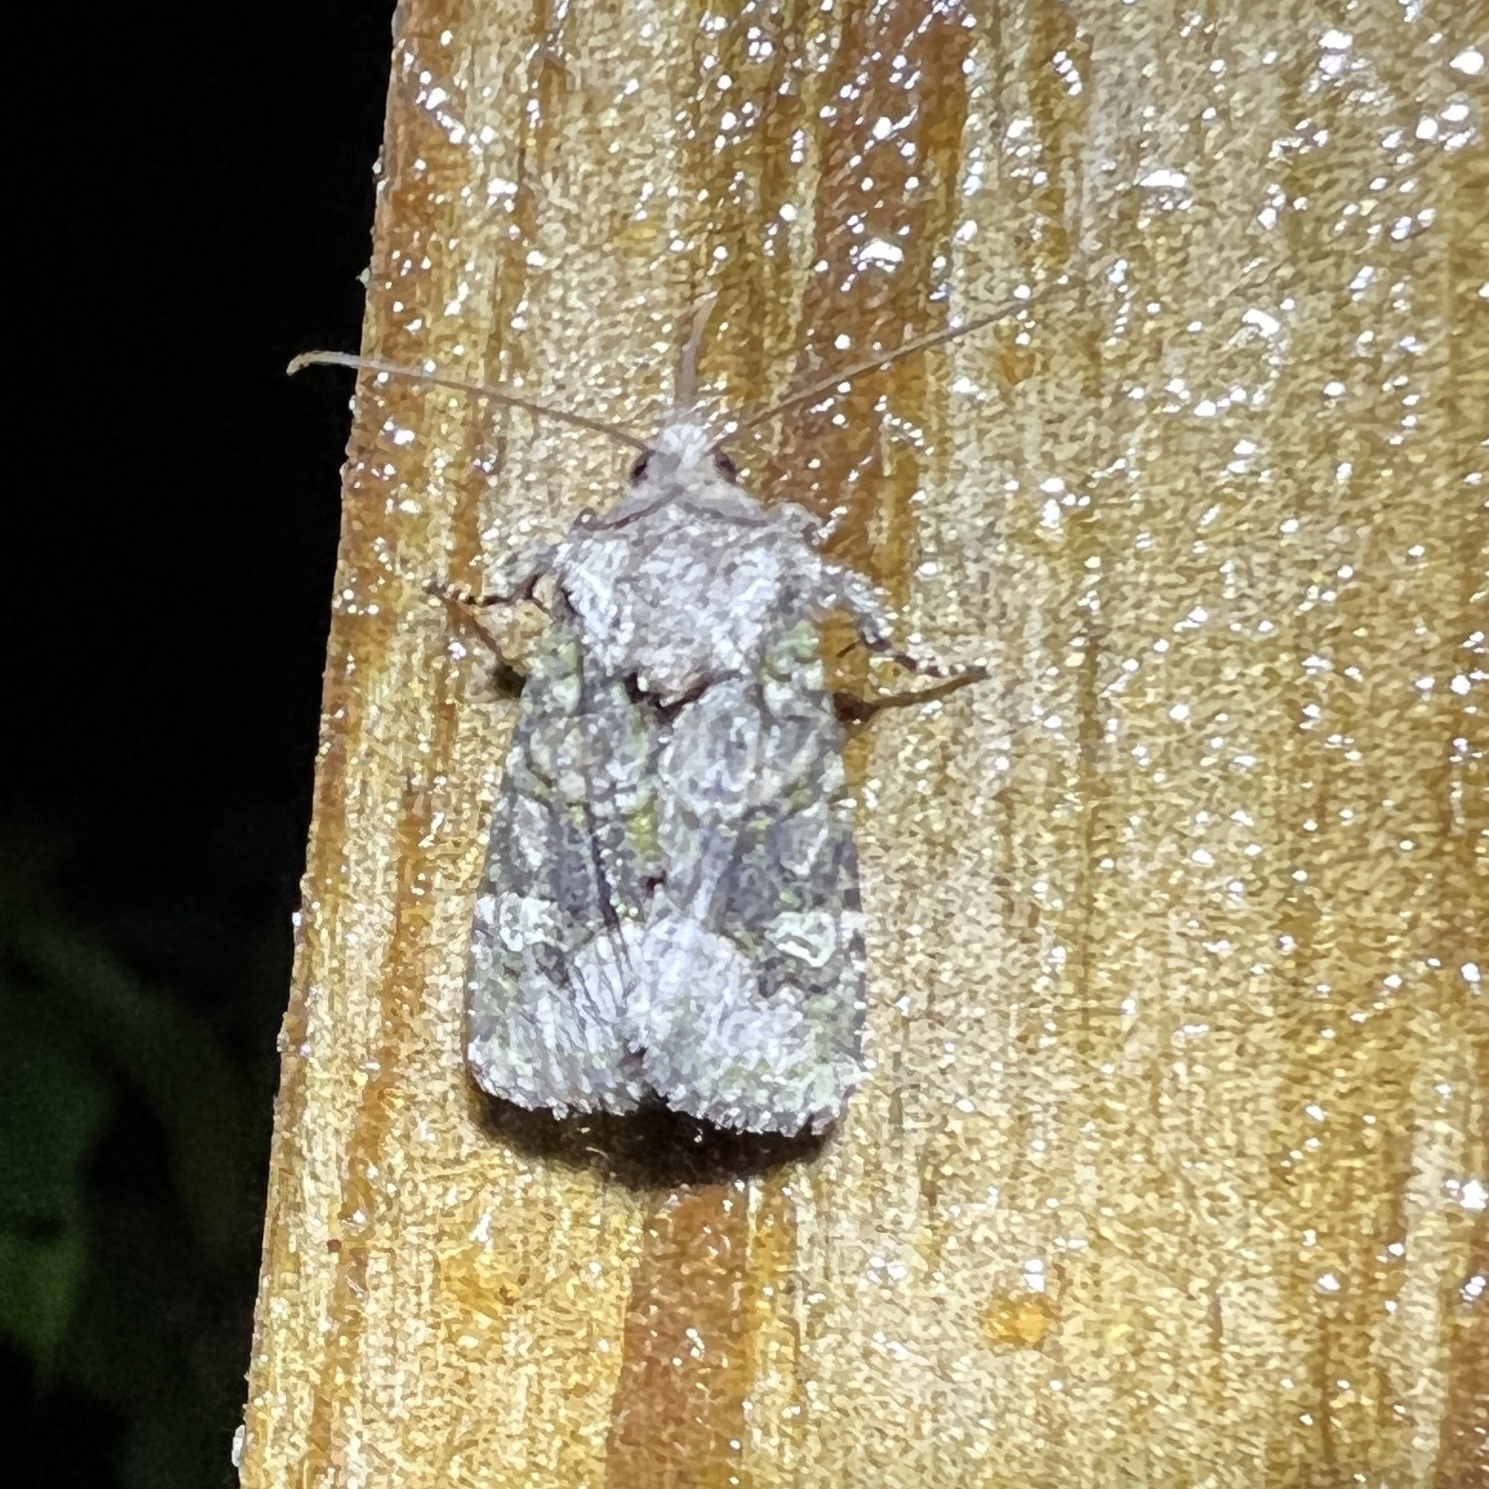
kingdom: Animalia
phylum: Arthropoda
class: Insecta
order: Lepidoptera
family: Noctuidae
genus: Lacinipolia
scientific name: Lacinipolia olivacea
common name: Olive arches moth
